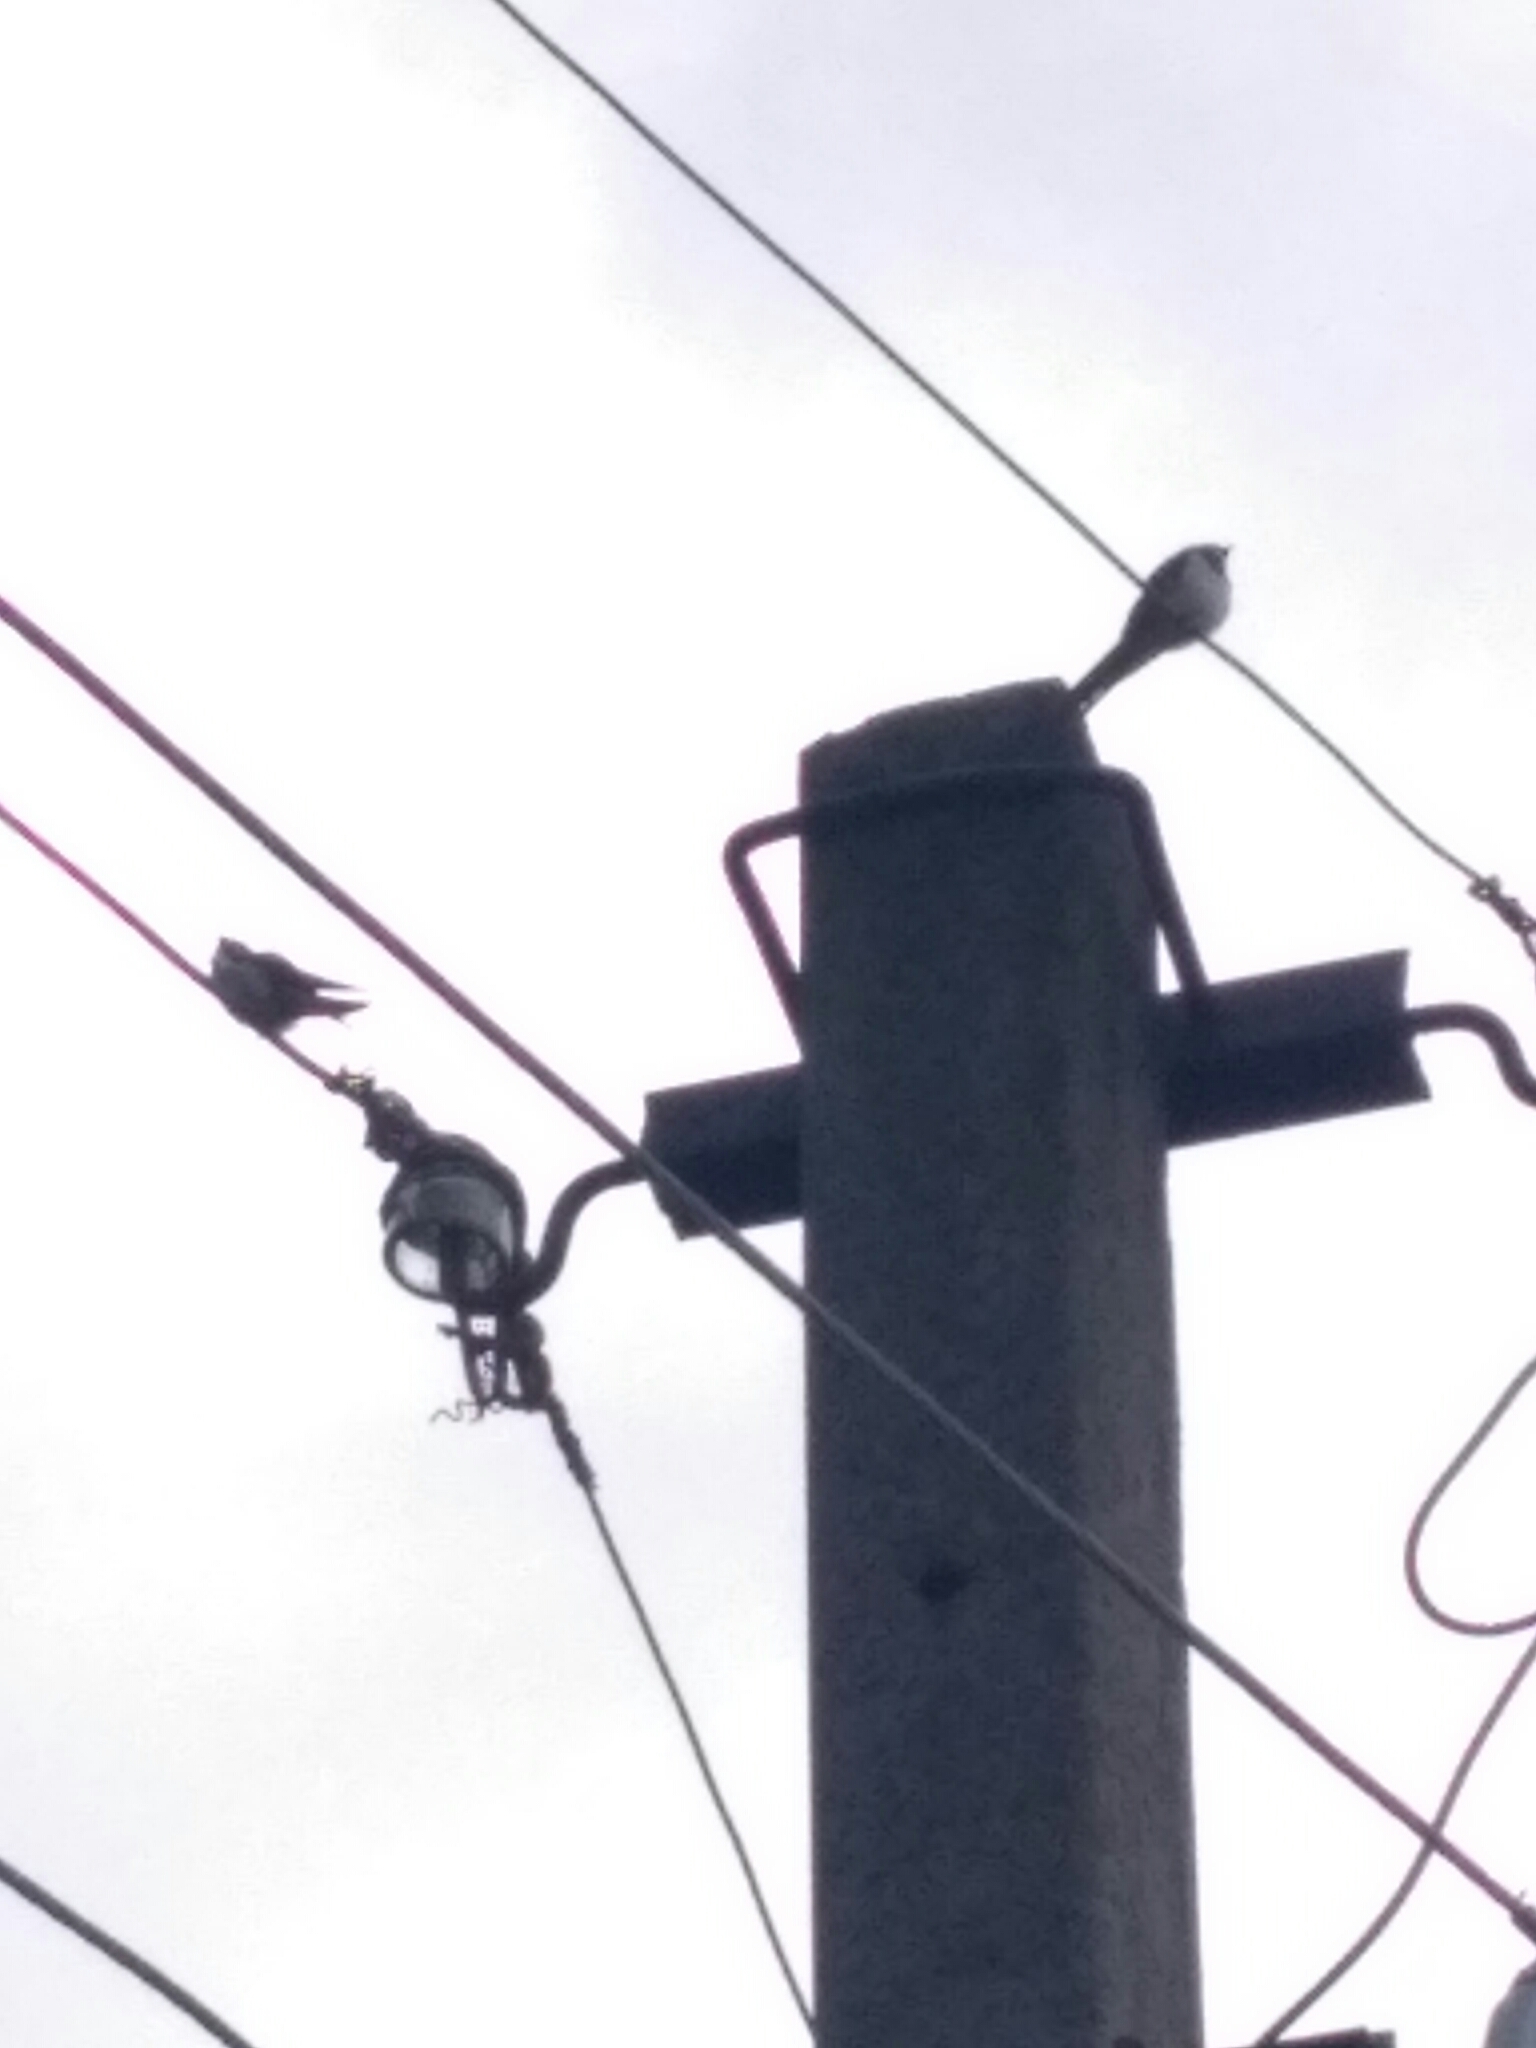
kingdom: Animalia
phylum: Chordata
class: Aves
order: Passeriformes
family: Hirundinidae
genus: Hirundo
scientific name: Hirundo rustica
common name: Barn swallow
